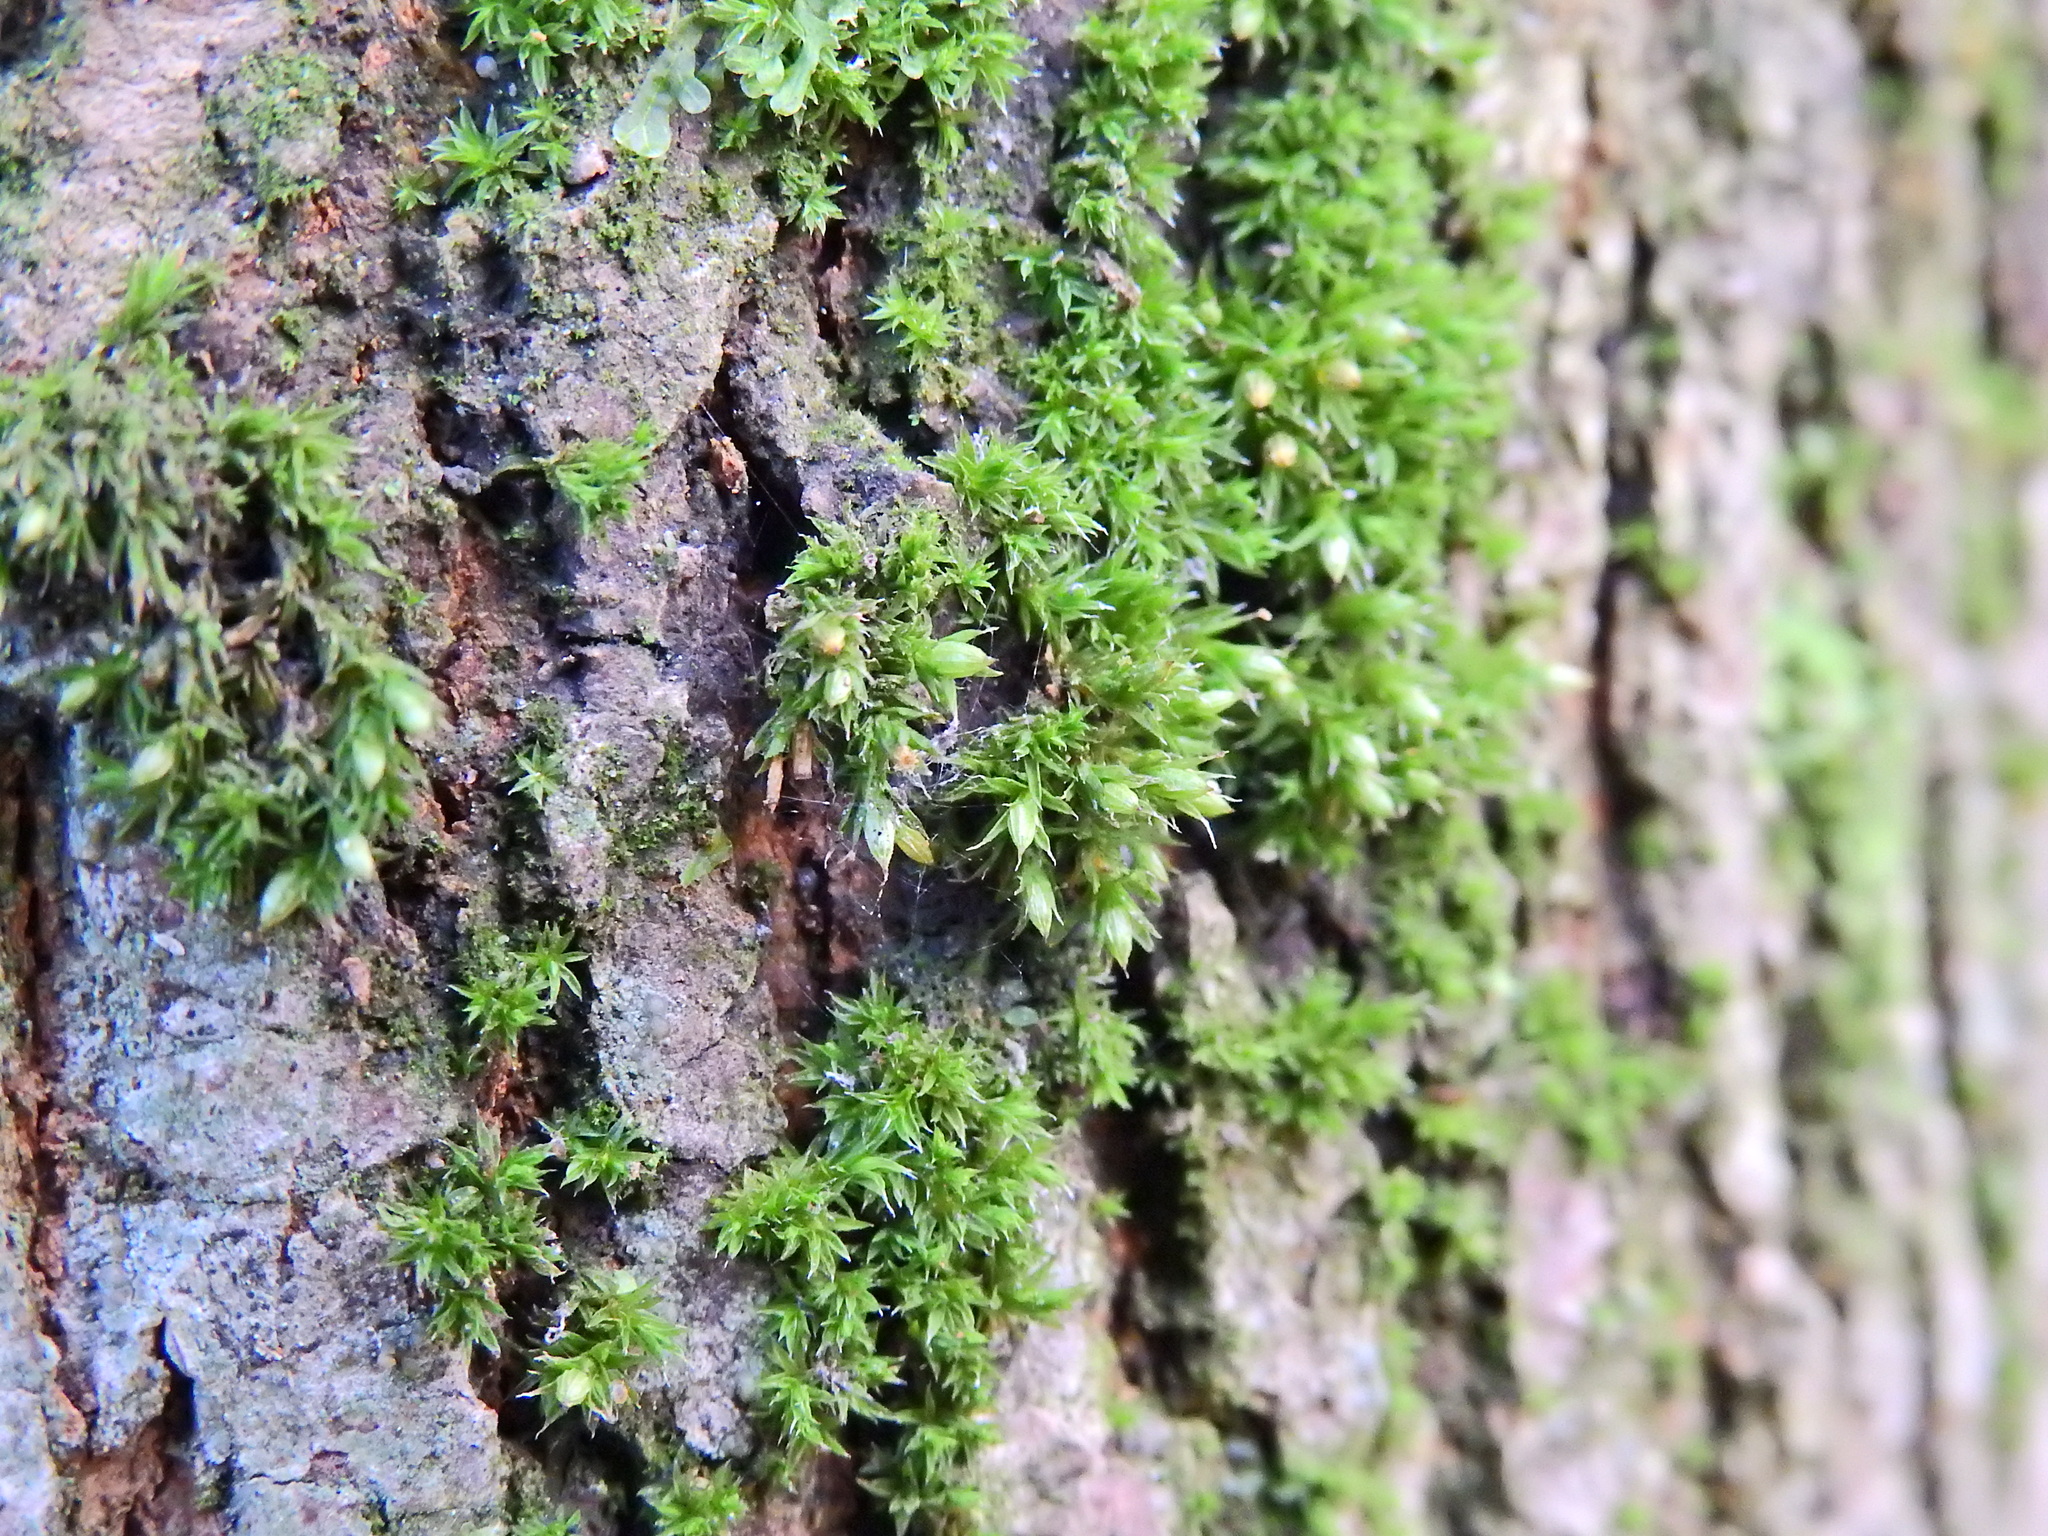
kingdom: Plantae
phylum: Bryophyta
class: Bryopsida
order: Orthotrichales
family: Orthotrichaceae
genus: Orthotrichum
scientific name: Orthotrichum diaphanum
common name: White-tipped bristle-moss
